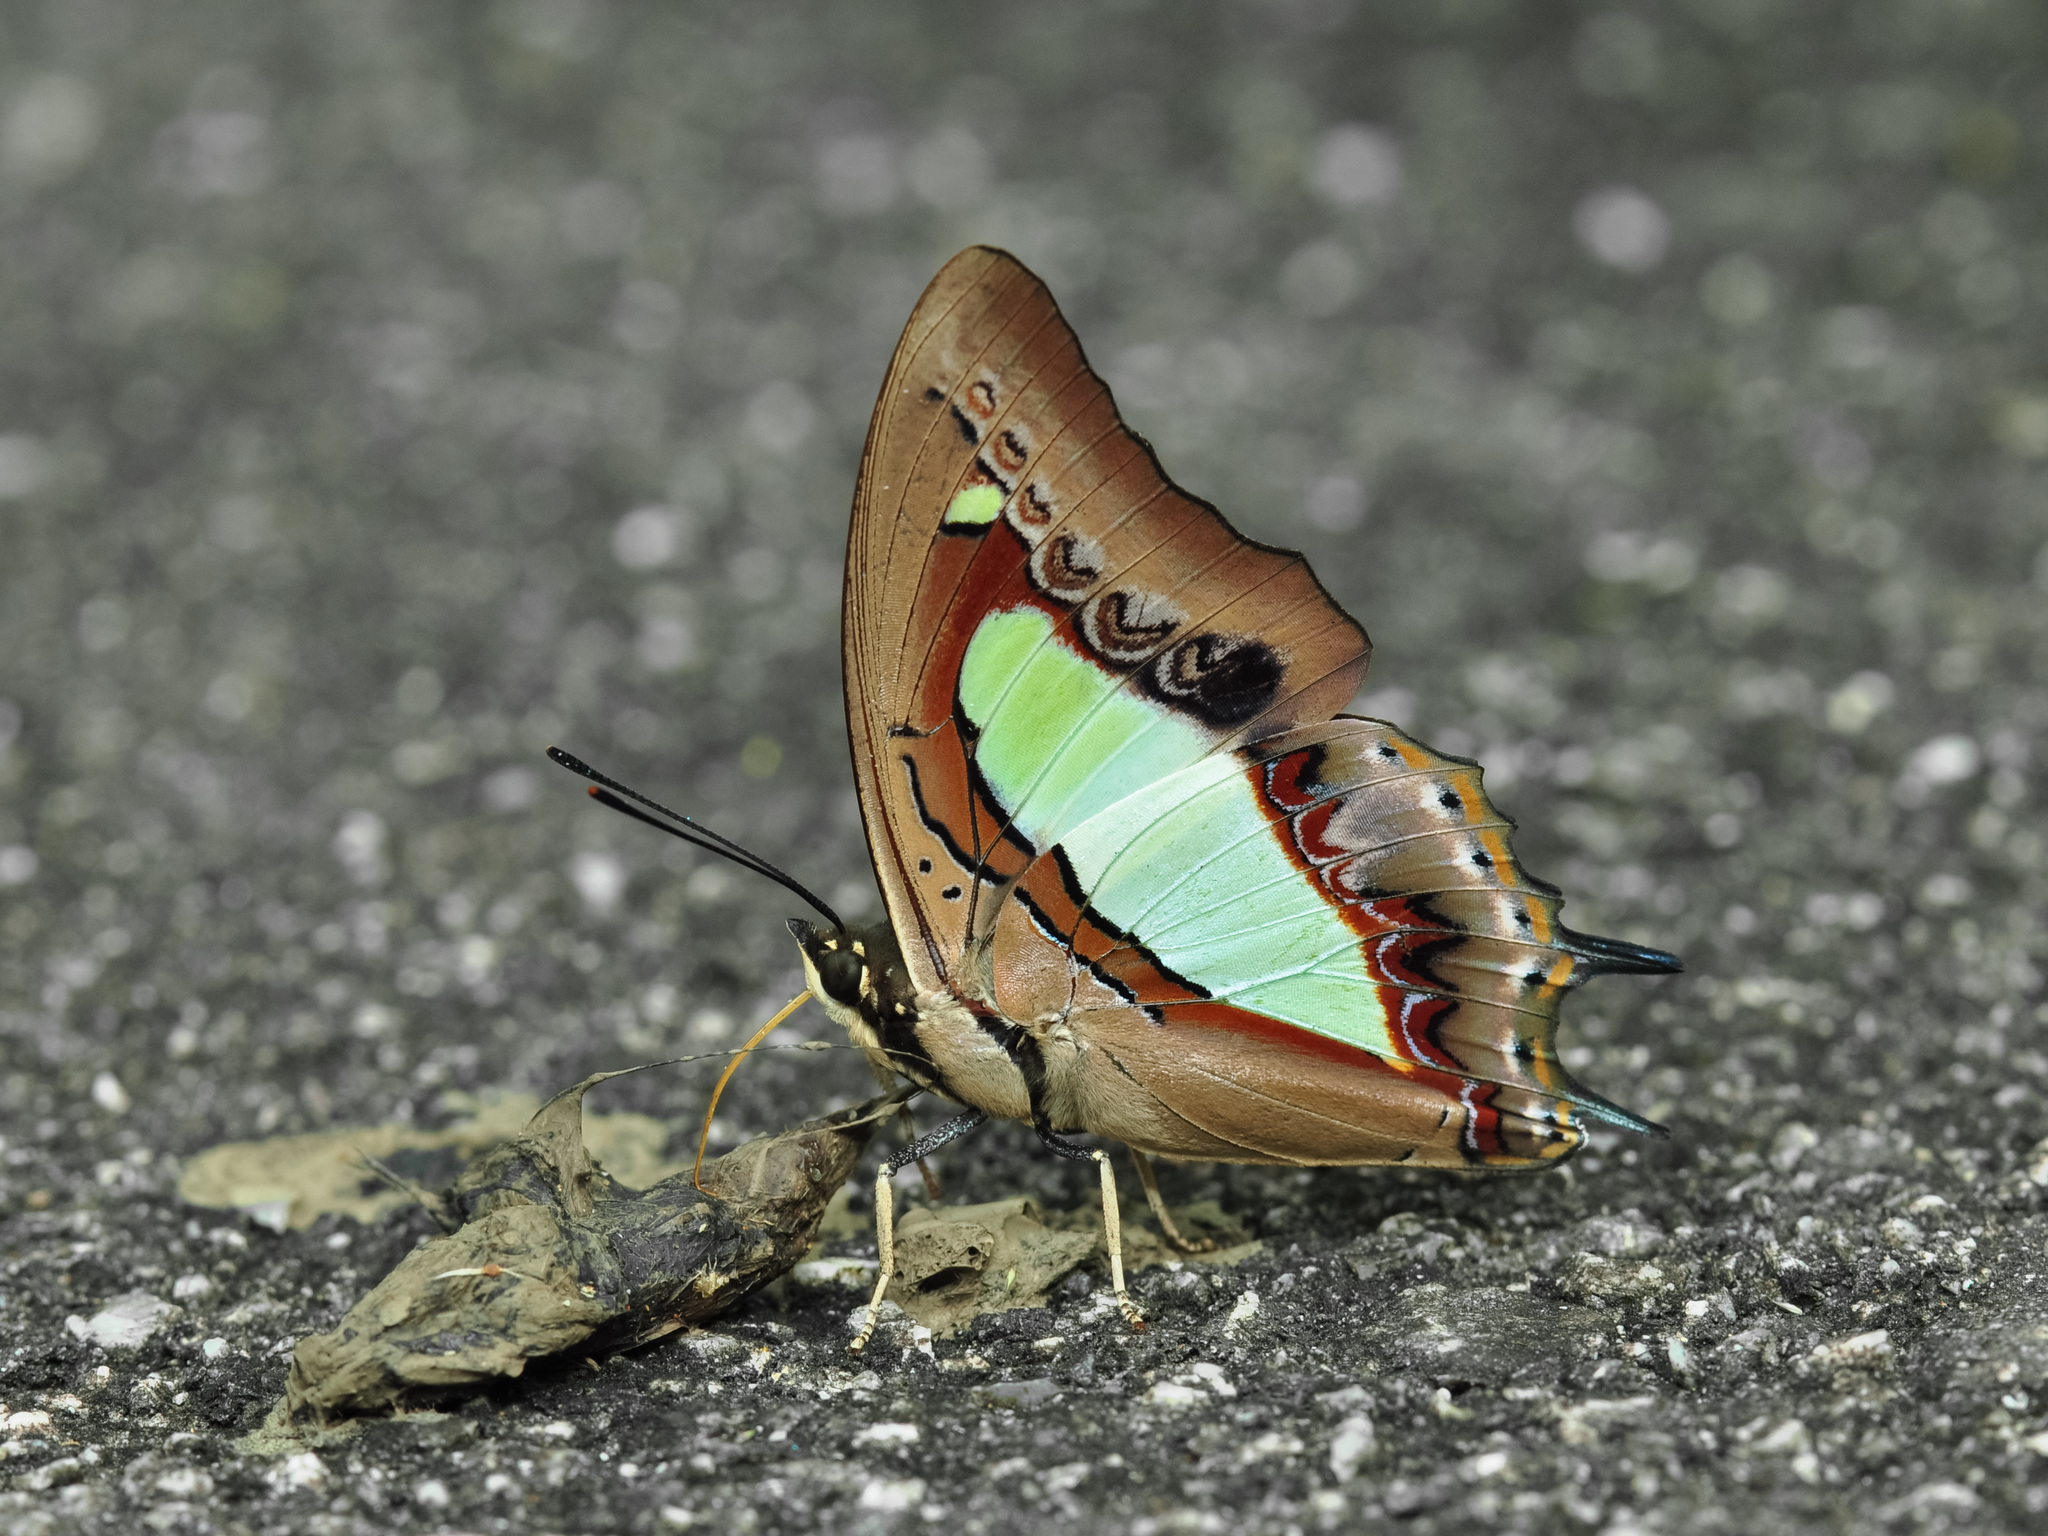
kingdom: Animalia
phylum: Arthropoda
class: Insecta
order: Lepidoptera
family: Nymphalidae
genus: Polyura
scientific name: Polyura athamas
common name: Common nawab
